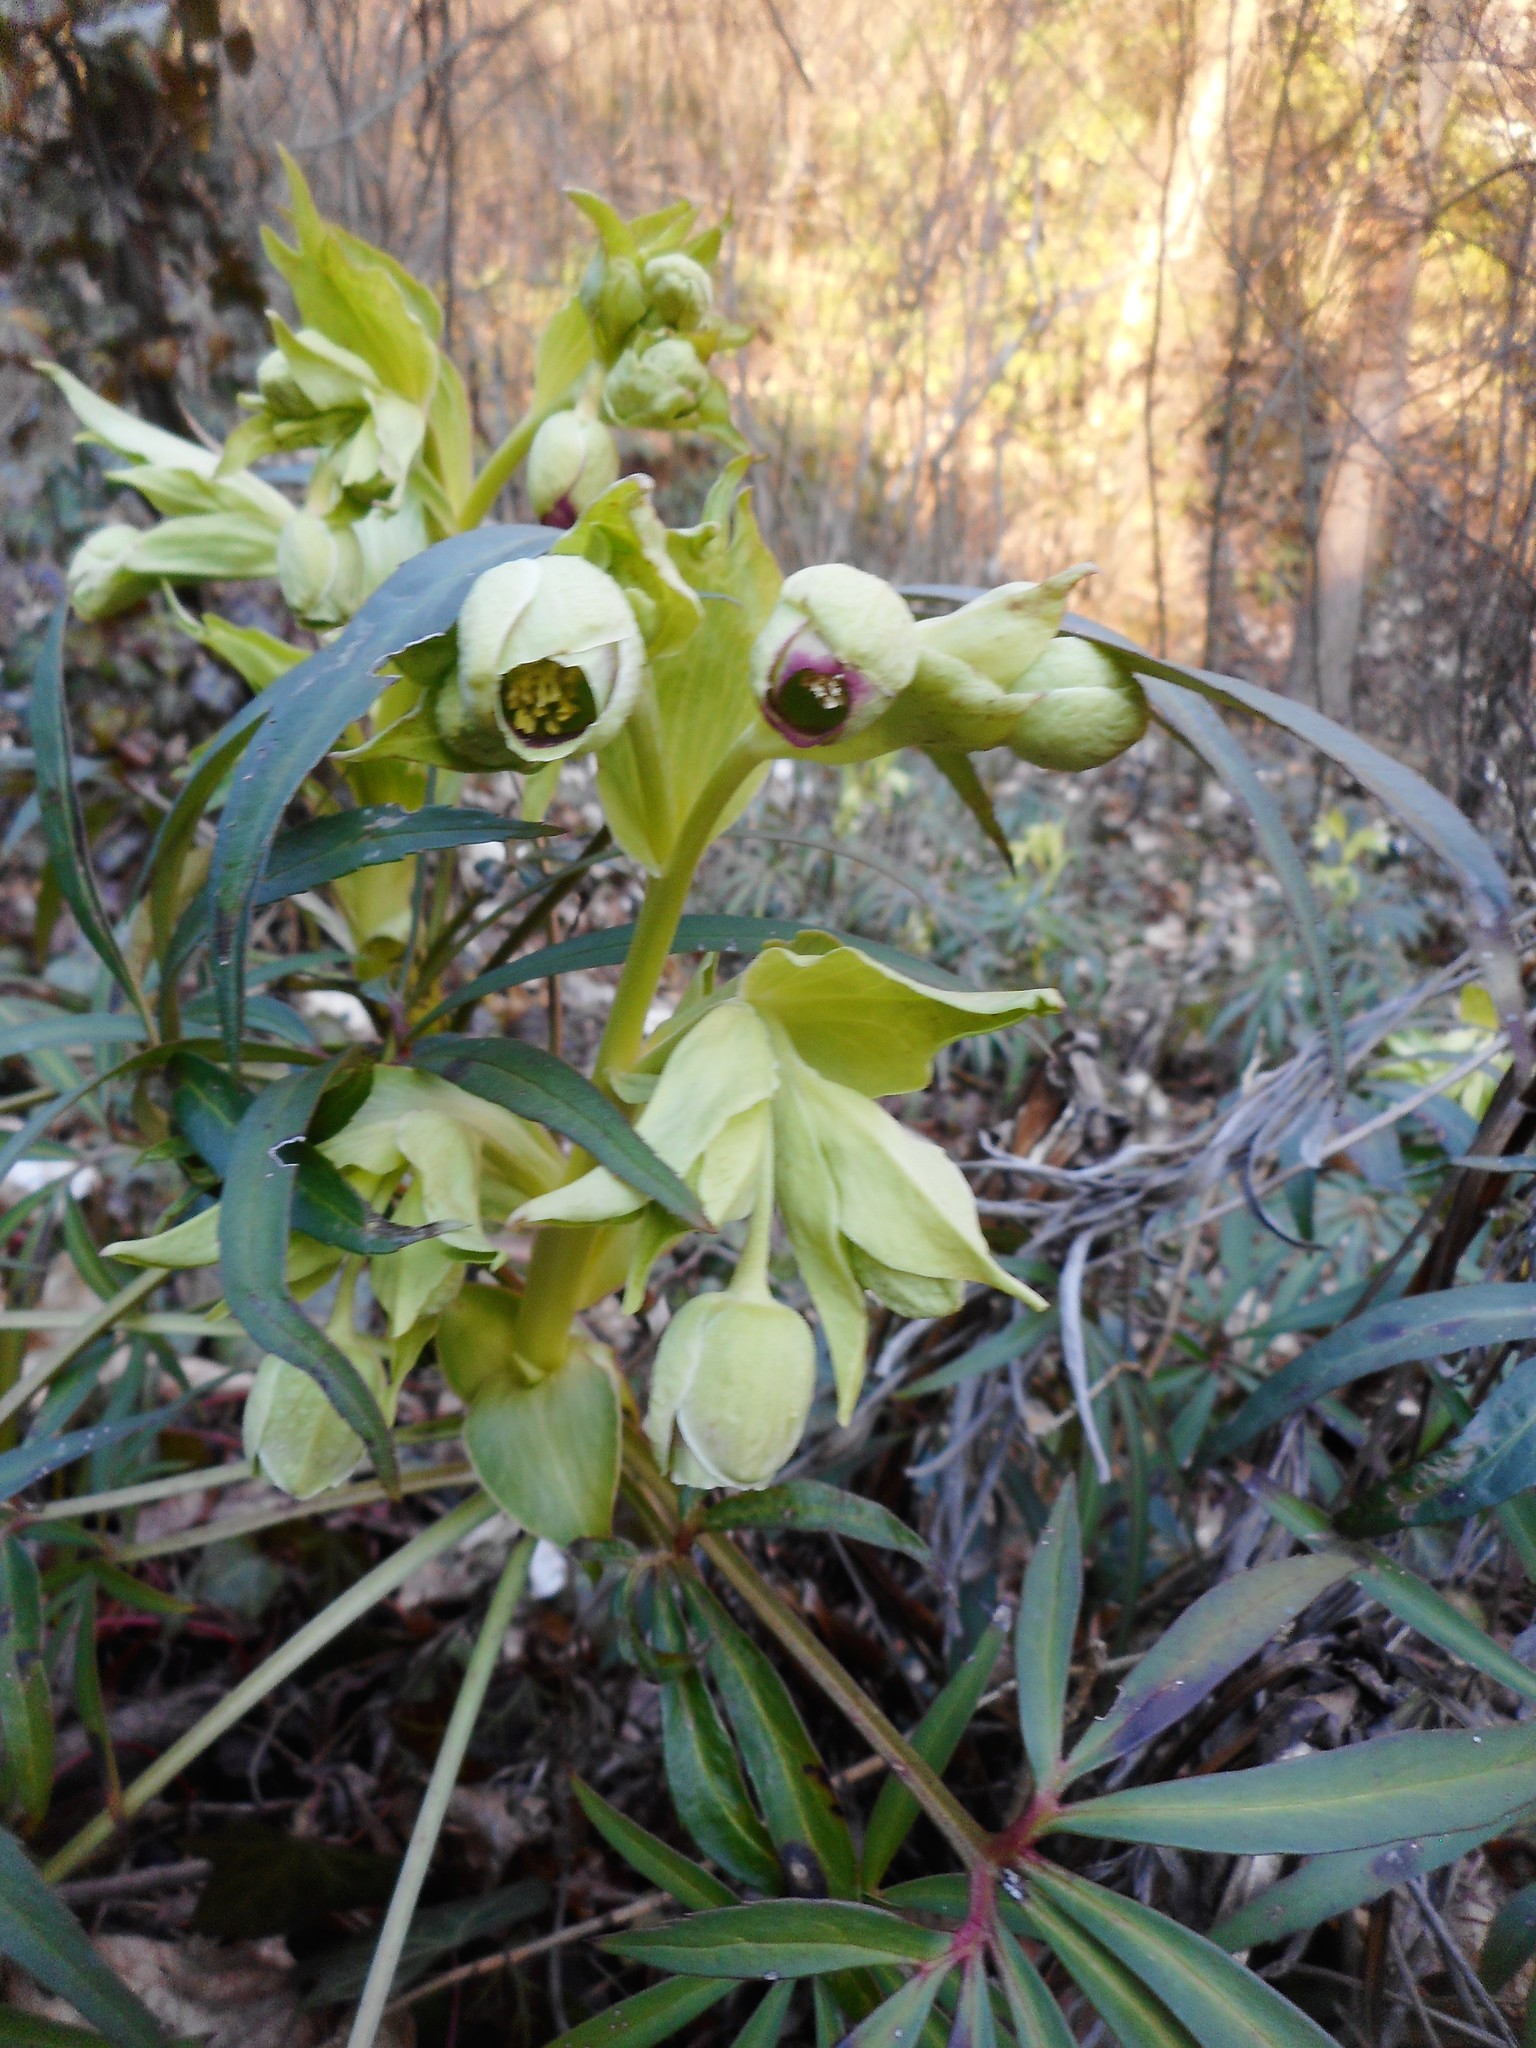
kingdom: Plantae
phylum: Tracheophyta
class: Magnoliopsida
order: Ranunculales
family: Ranunculaceae
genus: Helleborus
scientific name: Helleborus foetidus
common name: Stinking hellebore
